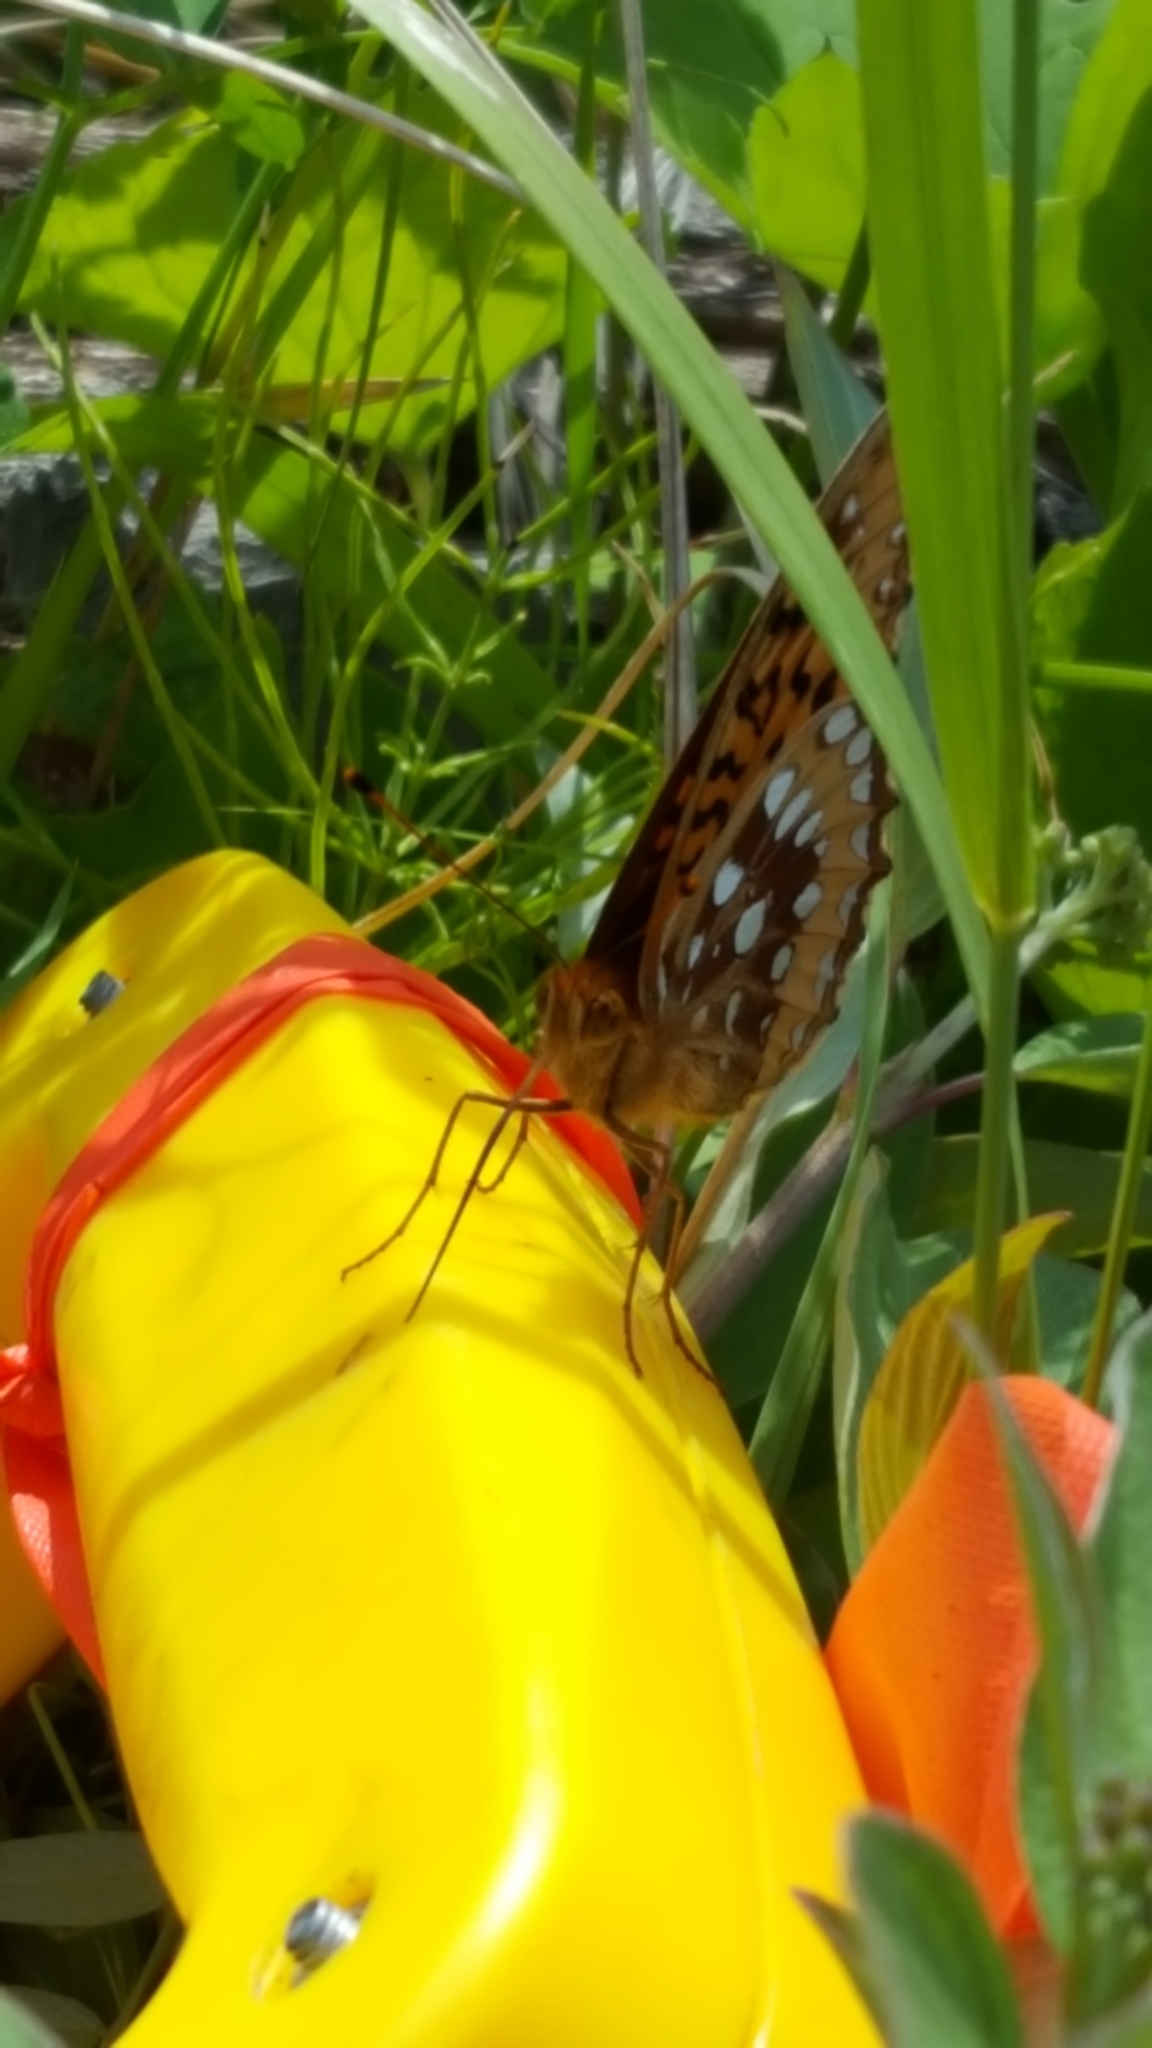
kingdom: Animalia
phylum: Arthropoda
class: Insecta
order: Lepidoptera
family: Nymphalidae
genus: Speyeria
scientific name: Speyeria cybele
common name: Great spangled fritillary
